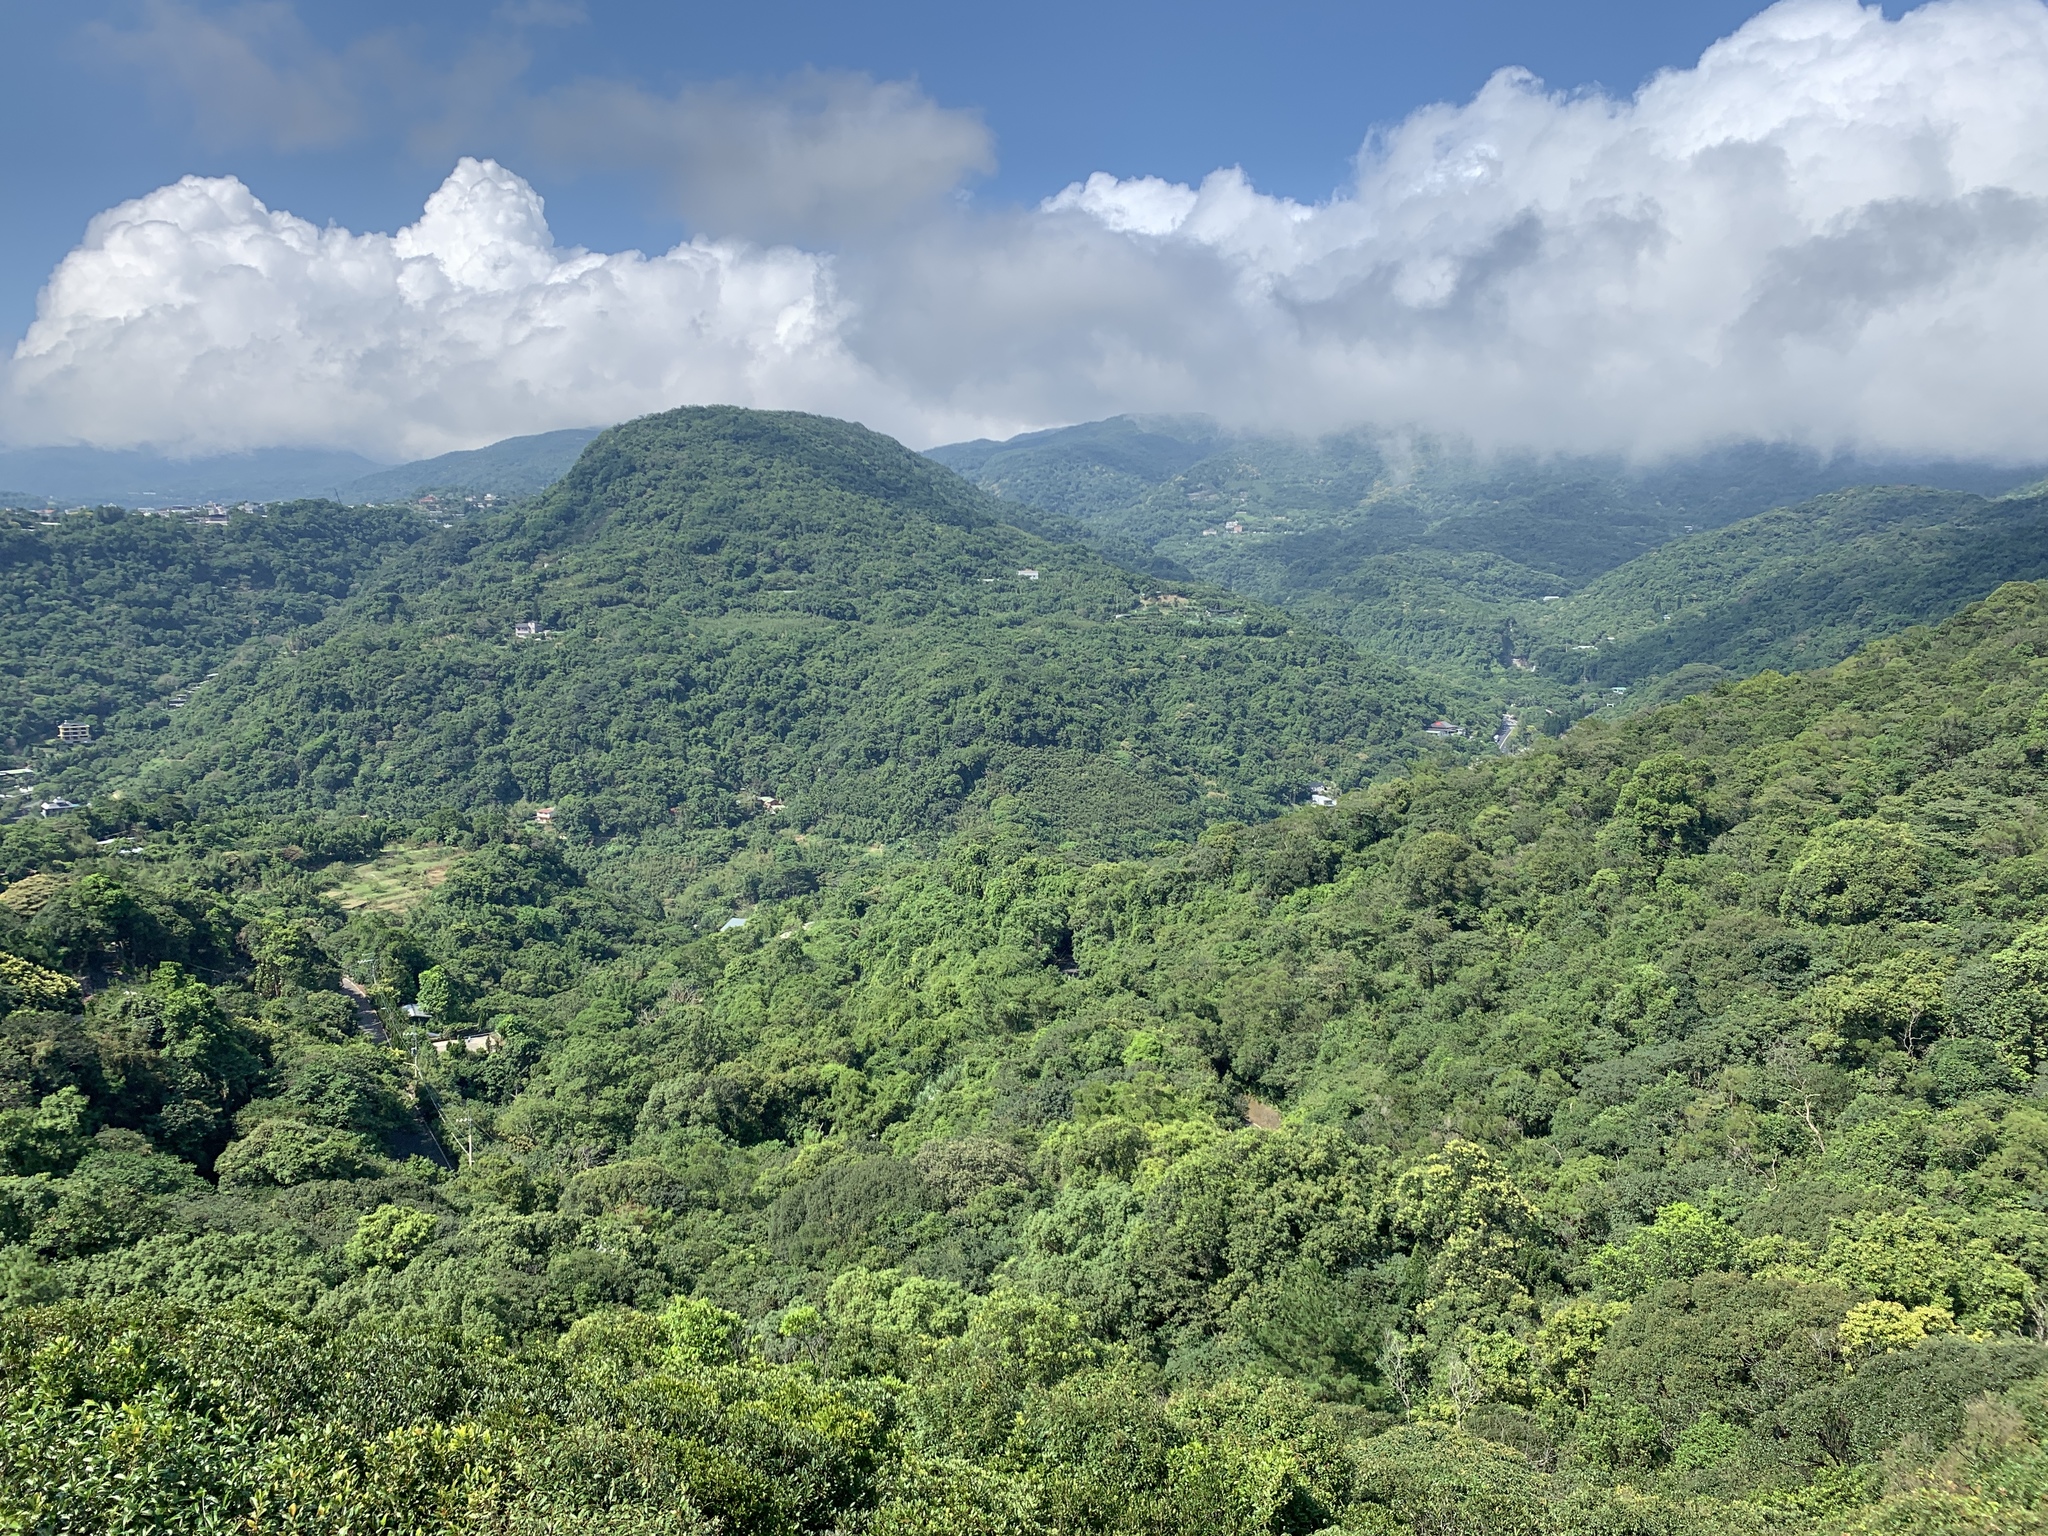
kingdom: Plantae
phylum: Tracheophyta
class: Magnoliopsida
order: Laurales
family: Lauraceae
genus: Machilus
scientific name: Machilus thunbergii
